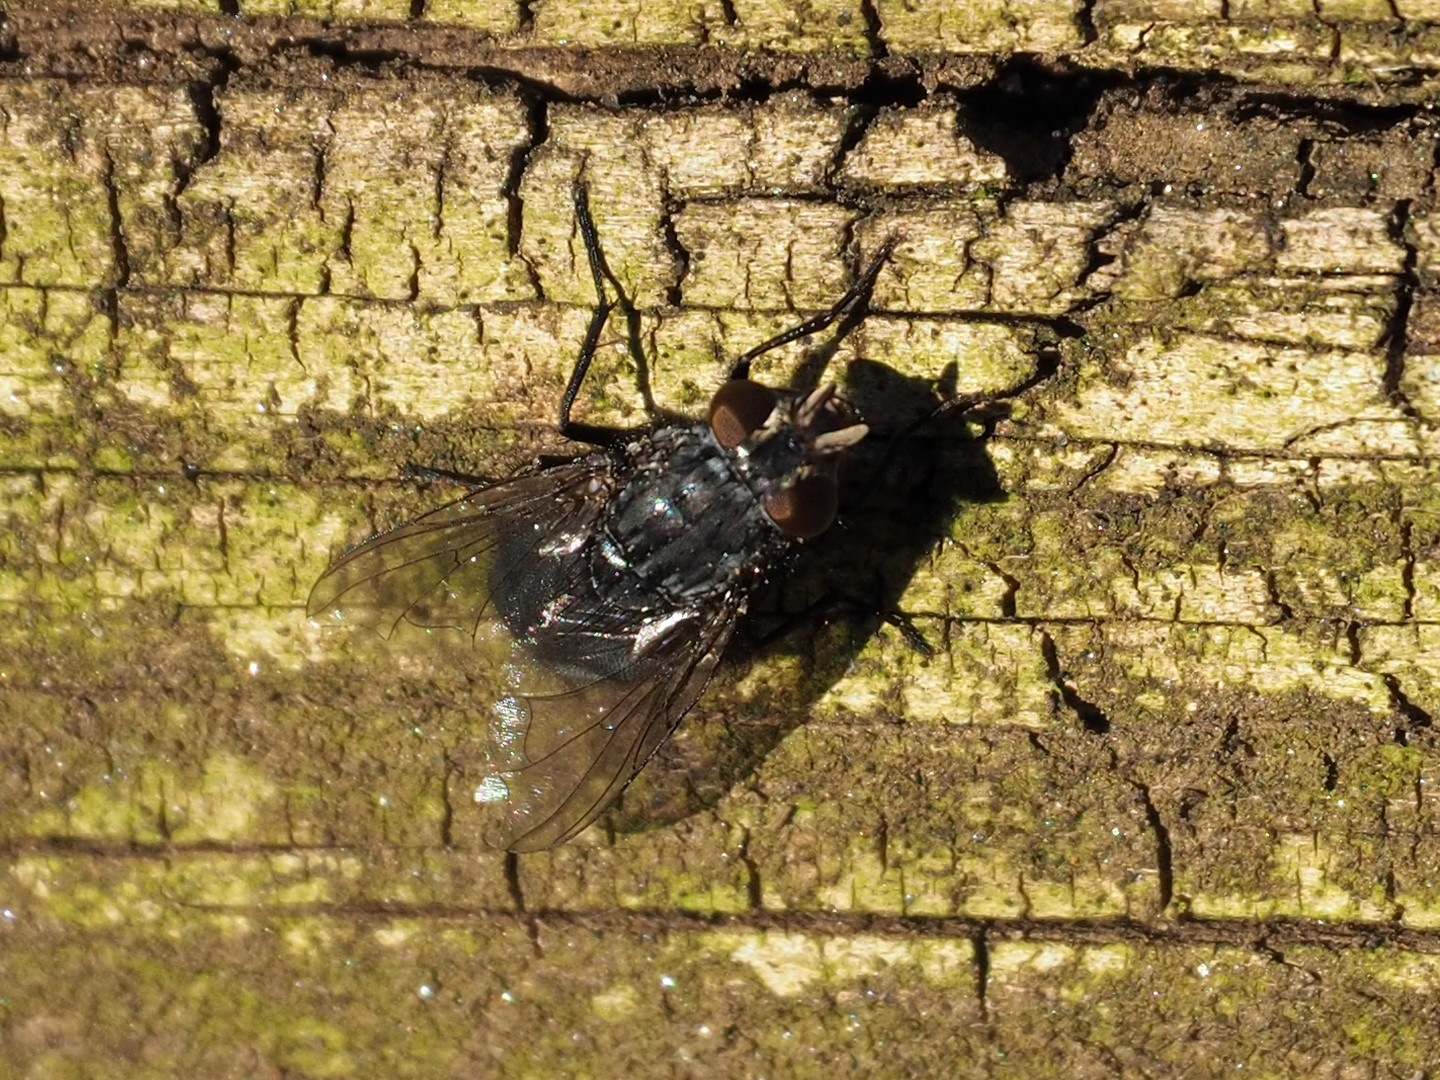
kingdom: Animalia
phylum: Arthropoda
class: Insecta
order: Diptera
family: Calliphoridae
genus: Calliphora
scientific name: Calliphora
